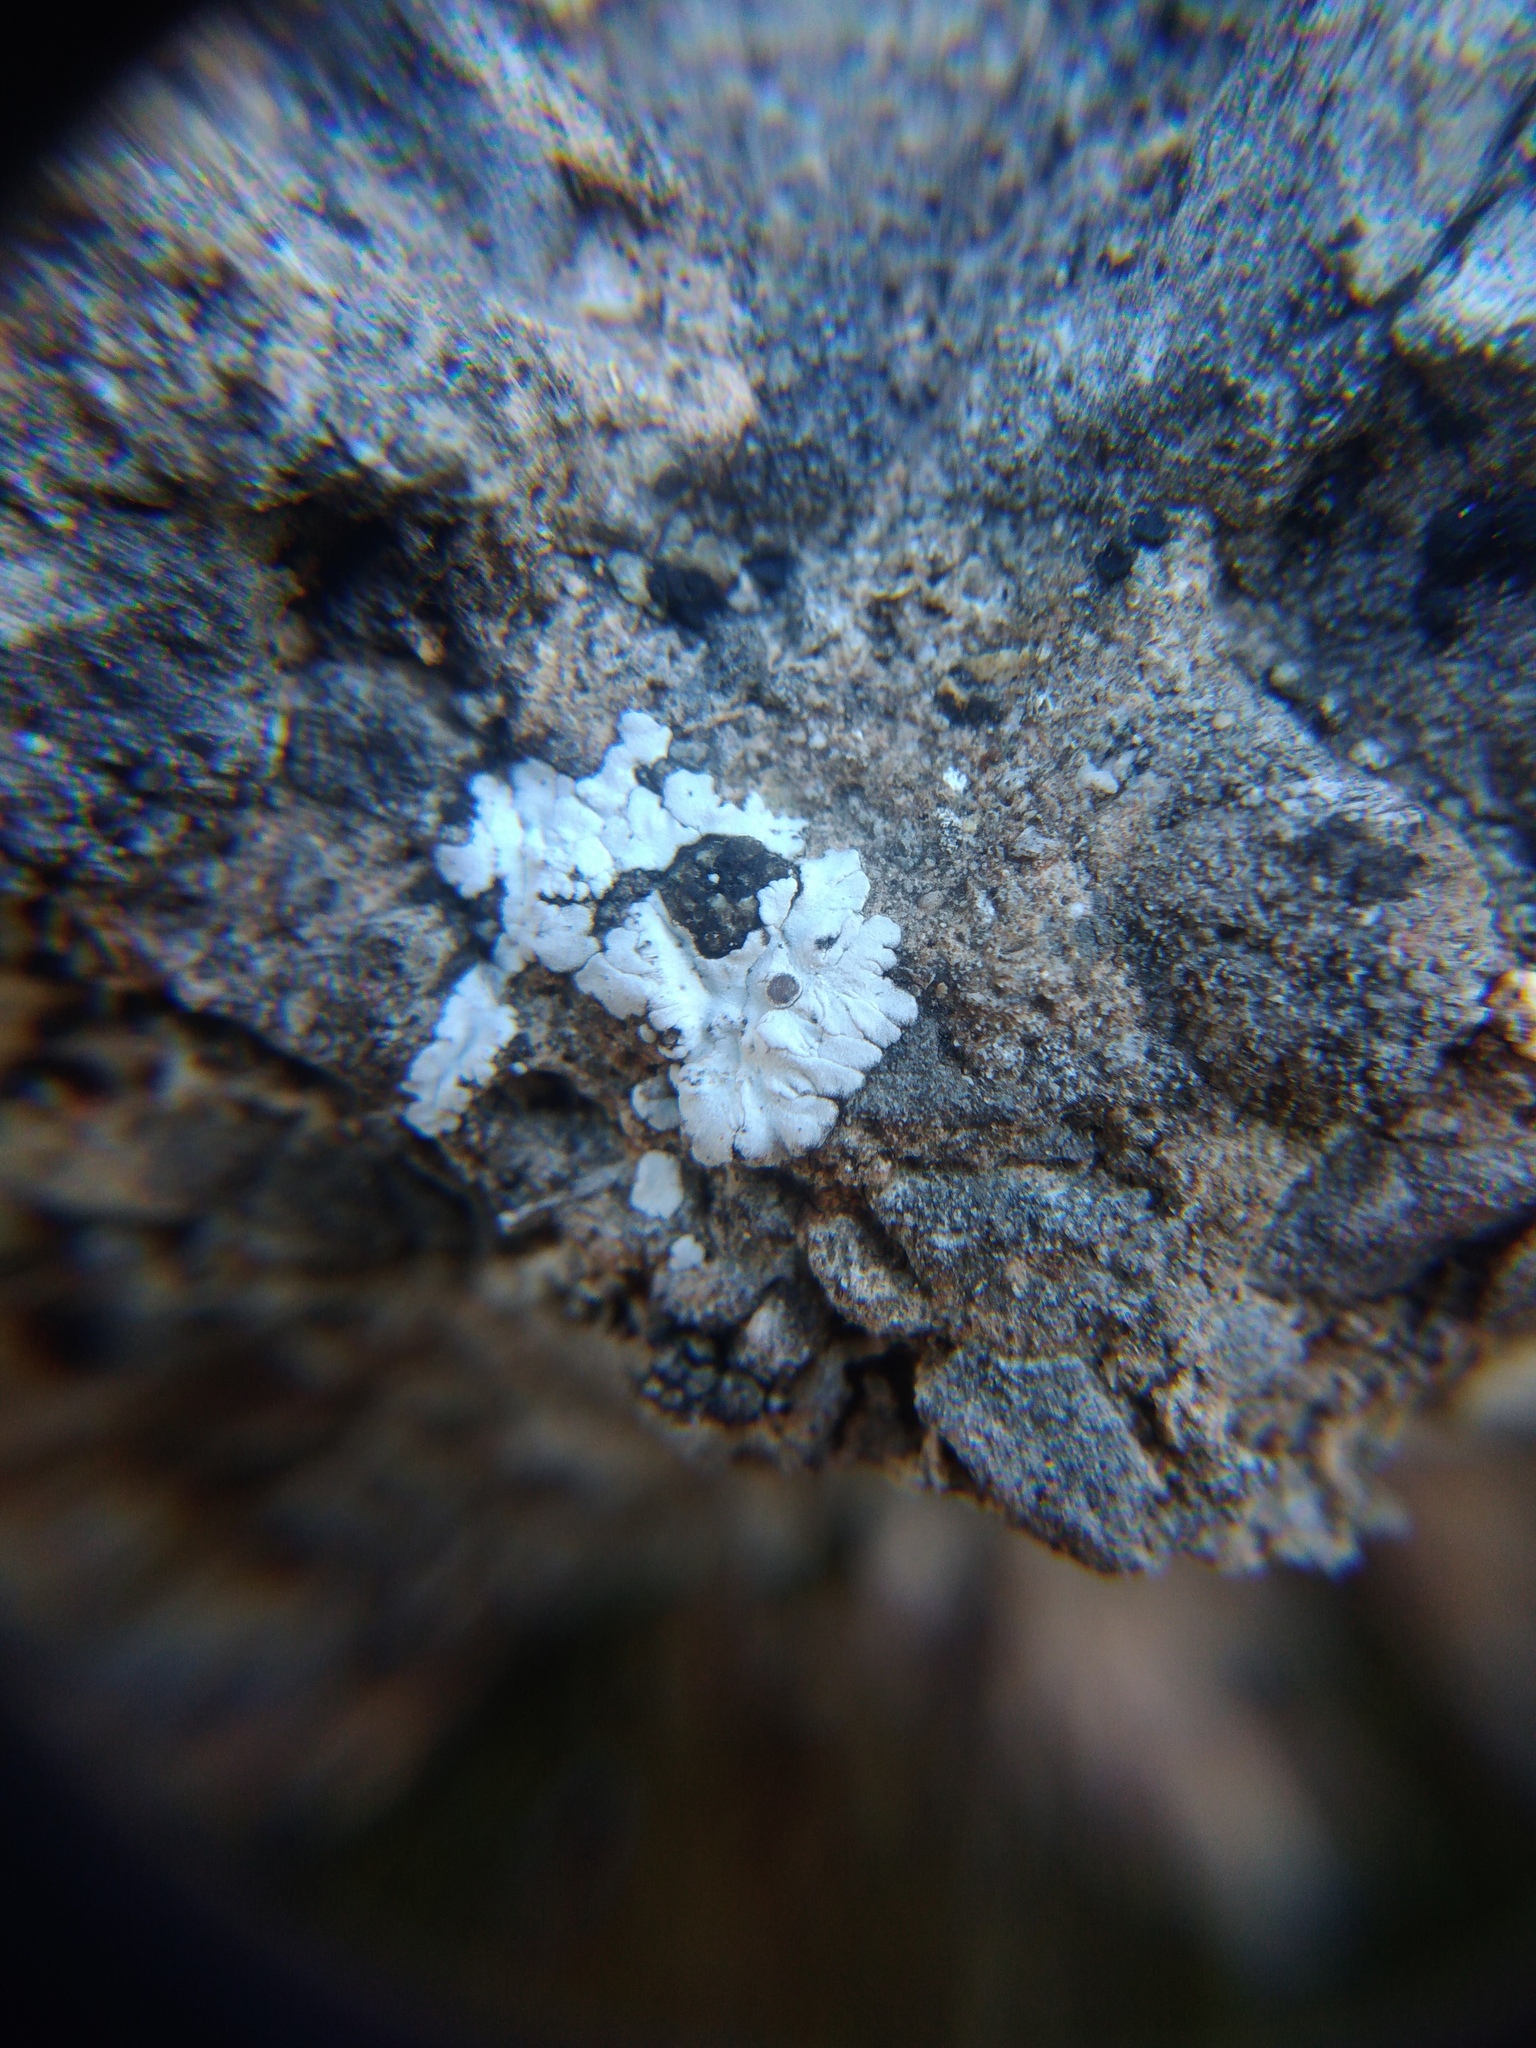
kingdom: Fungi
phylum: Ascomycota
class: Lecanoromycetes
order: Lecanorales
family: Catillariaceae
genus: Solenopsora
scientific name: Solenopsora candicans
